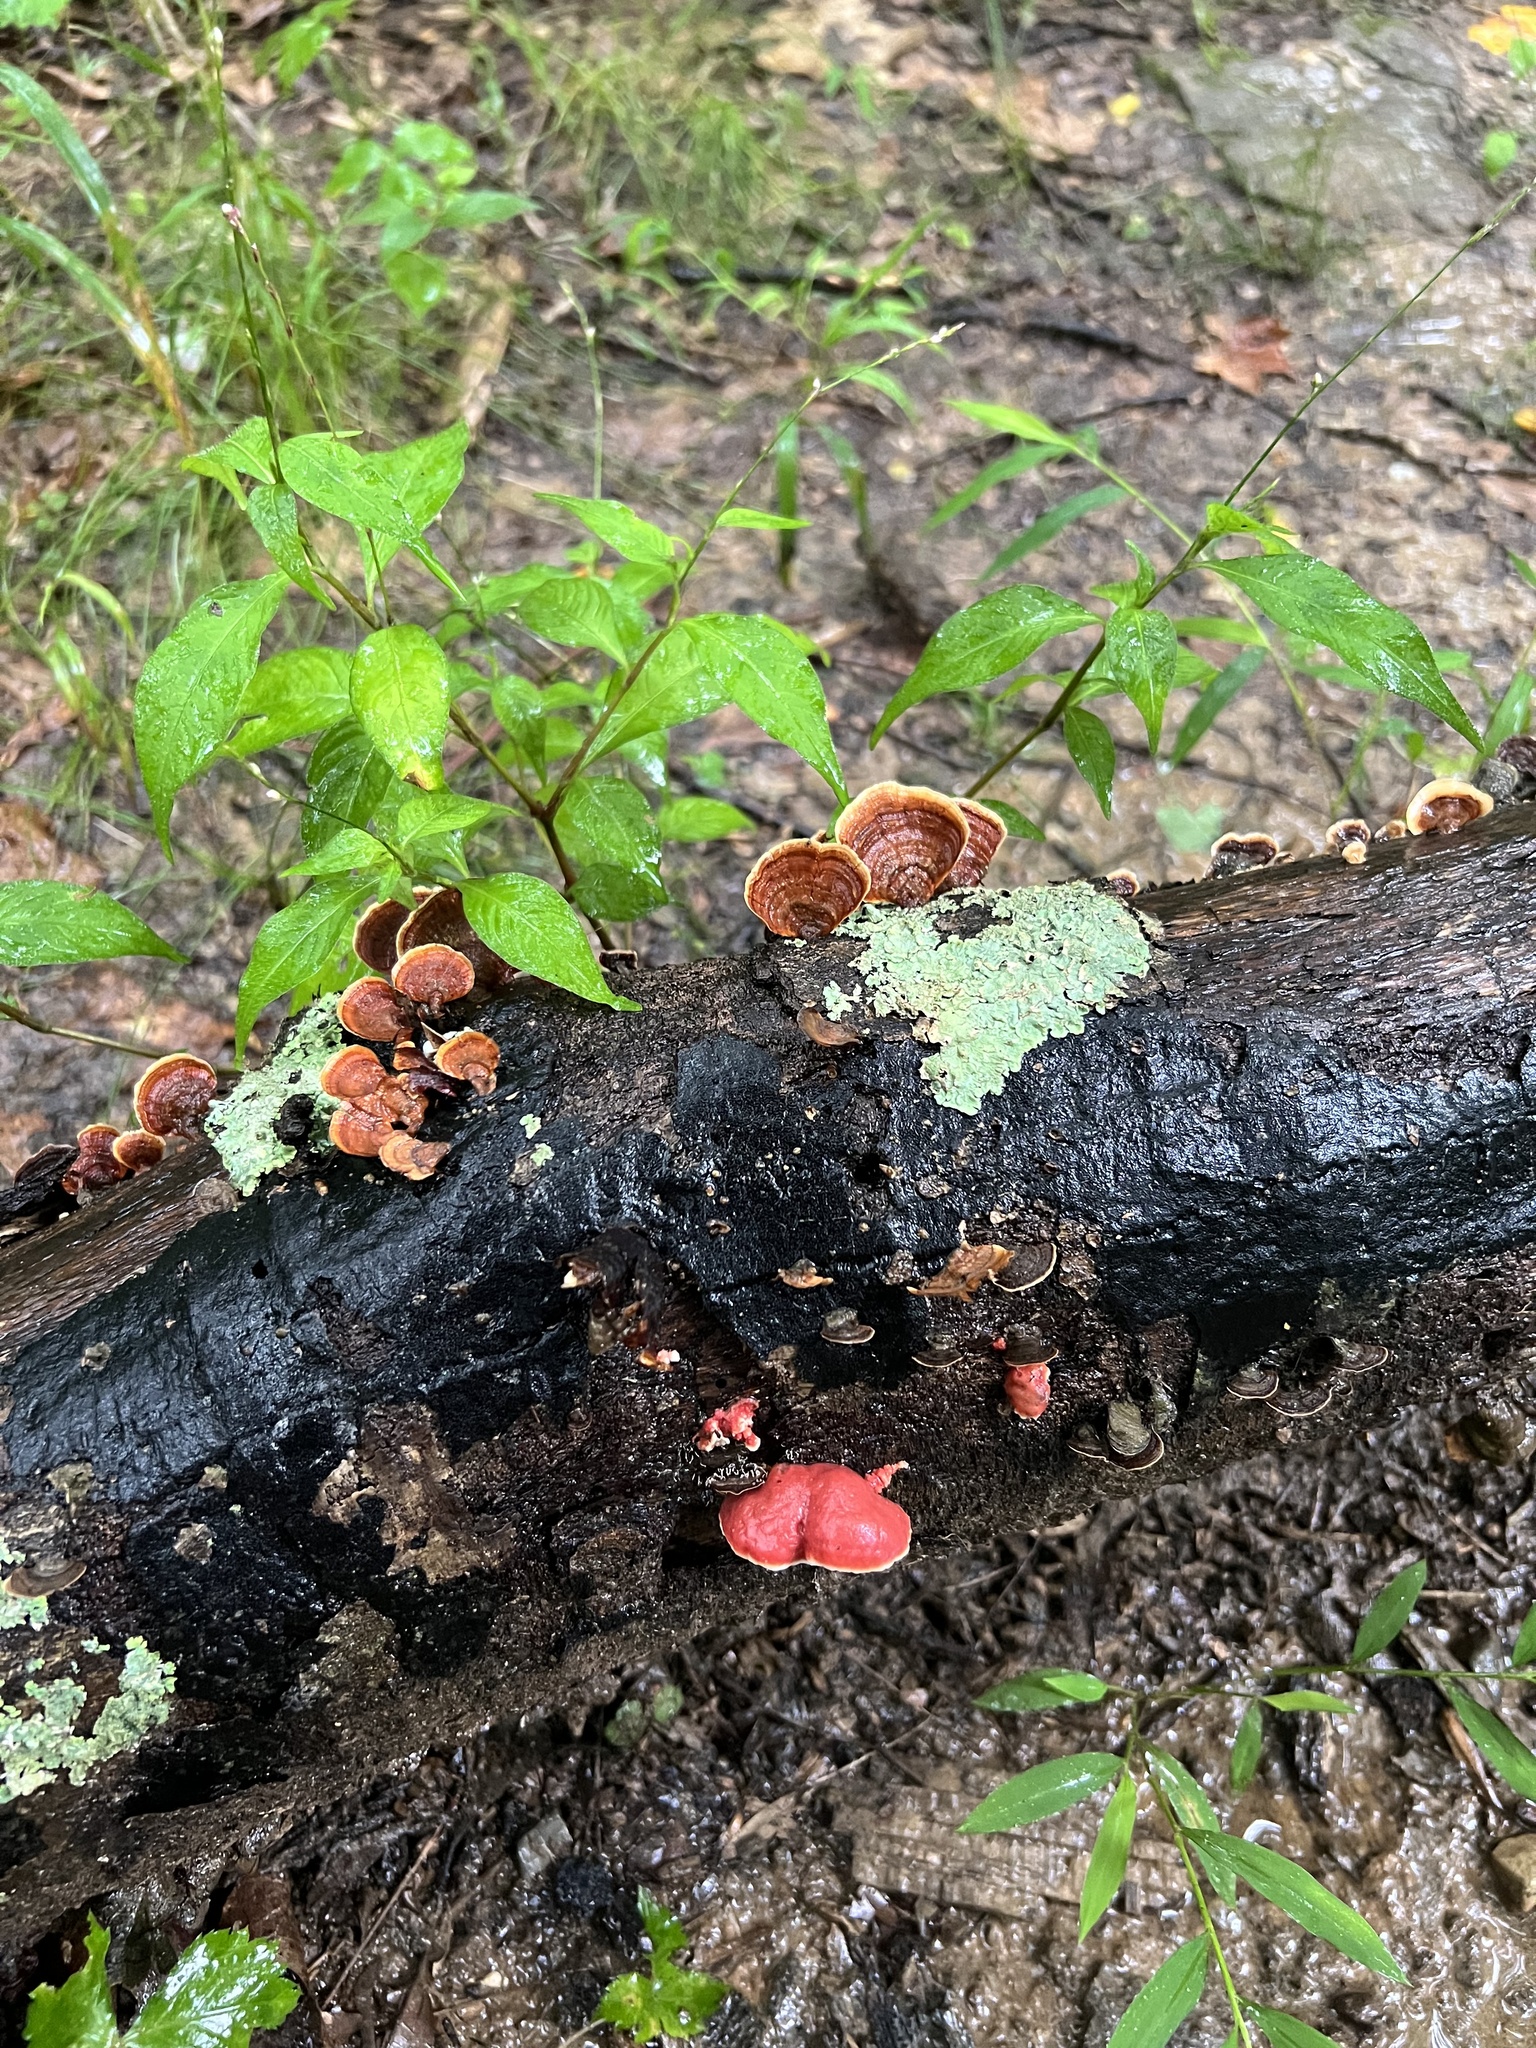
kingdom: Fungi
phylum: Basidiomycota
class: Agaricomycetes
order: Polyporales
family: Irpicaceae
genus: Byssomerulius
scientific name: Byssomerulius incarnatus
